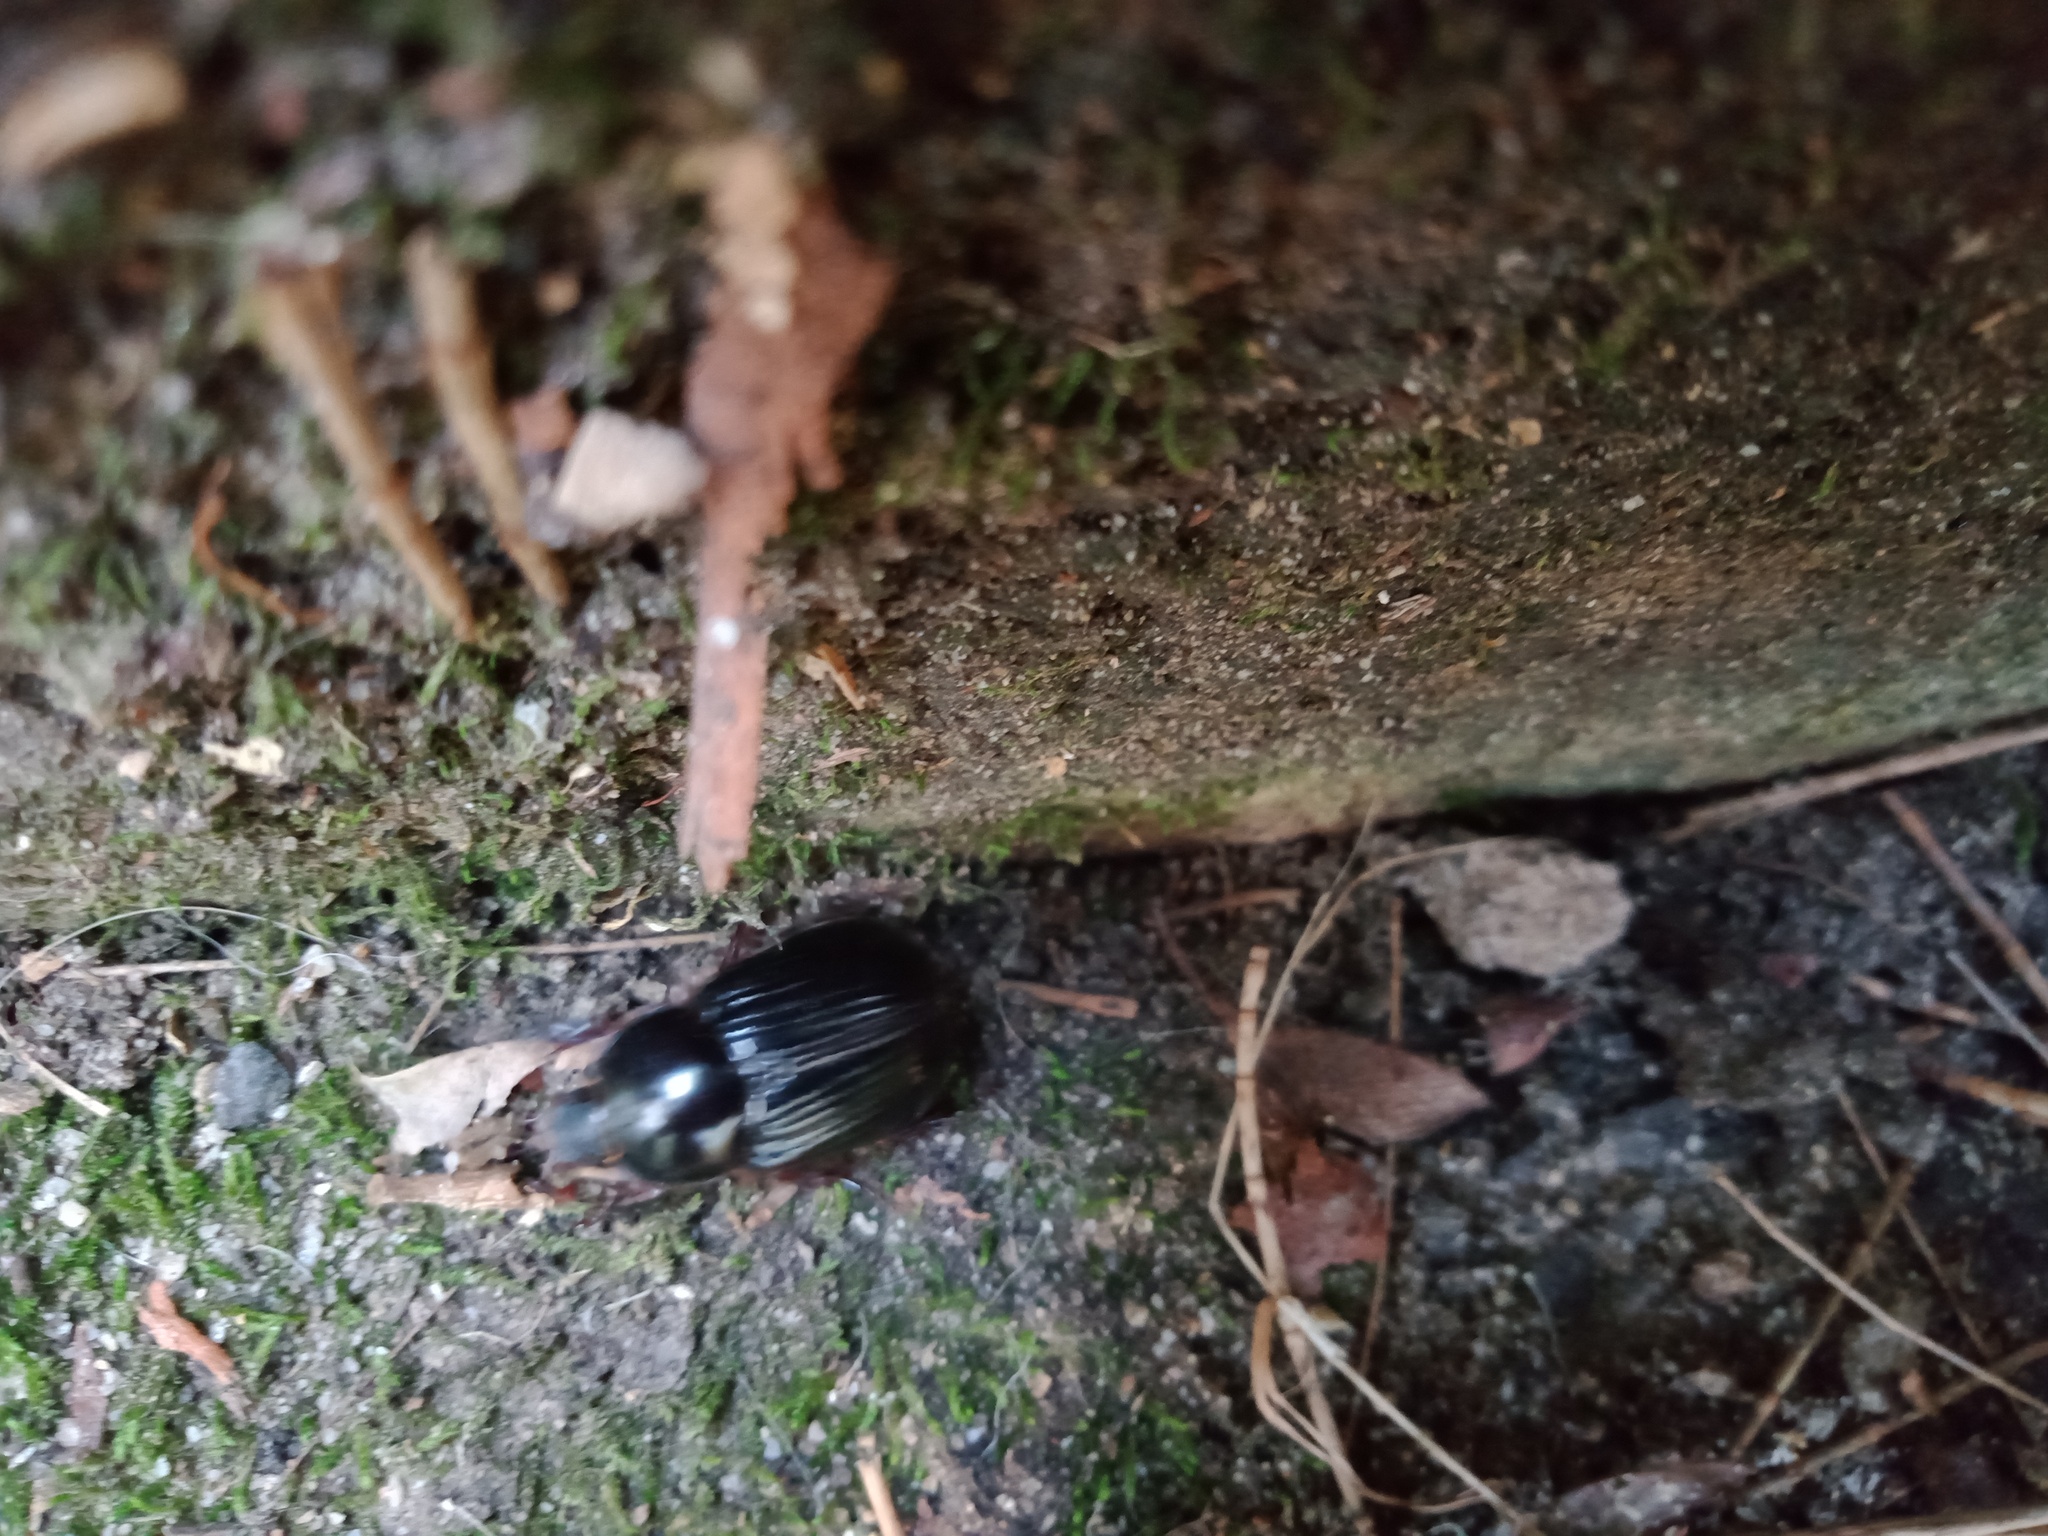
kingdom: Animalia
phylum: Arthropoda
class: Insecta
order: Coleoptera
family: Scarabaeidae
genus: Heteronychus
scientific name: Heteronychus arator
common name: African black beetle
